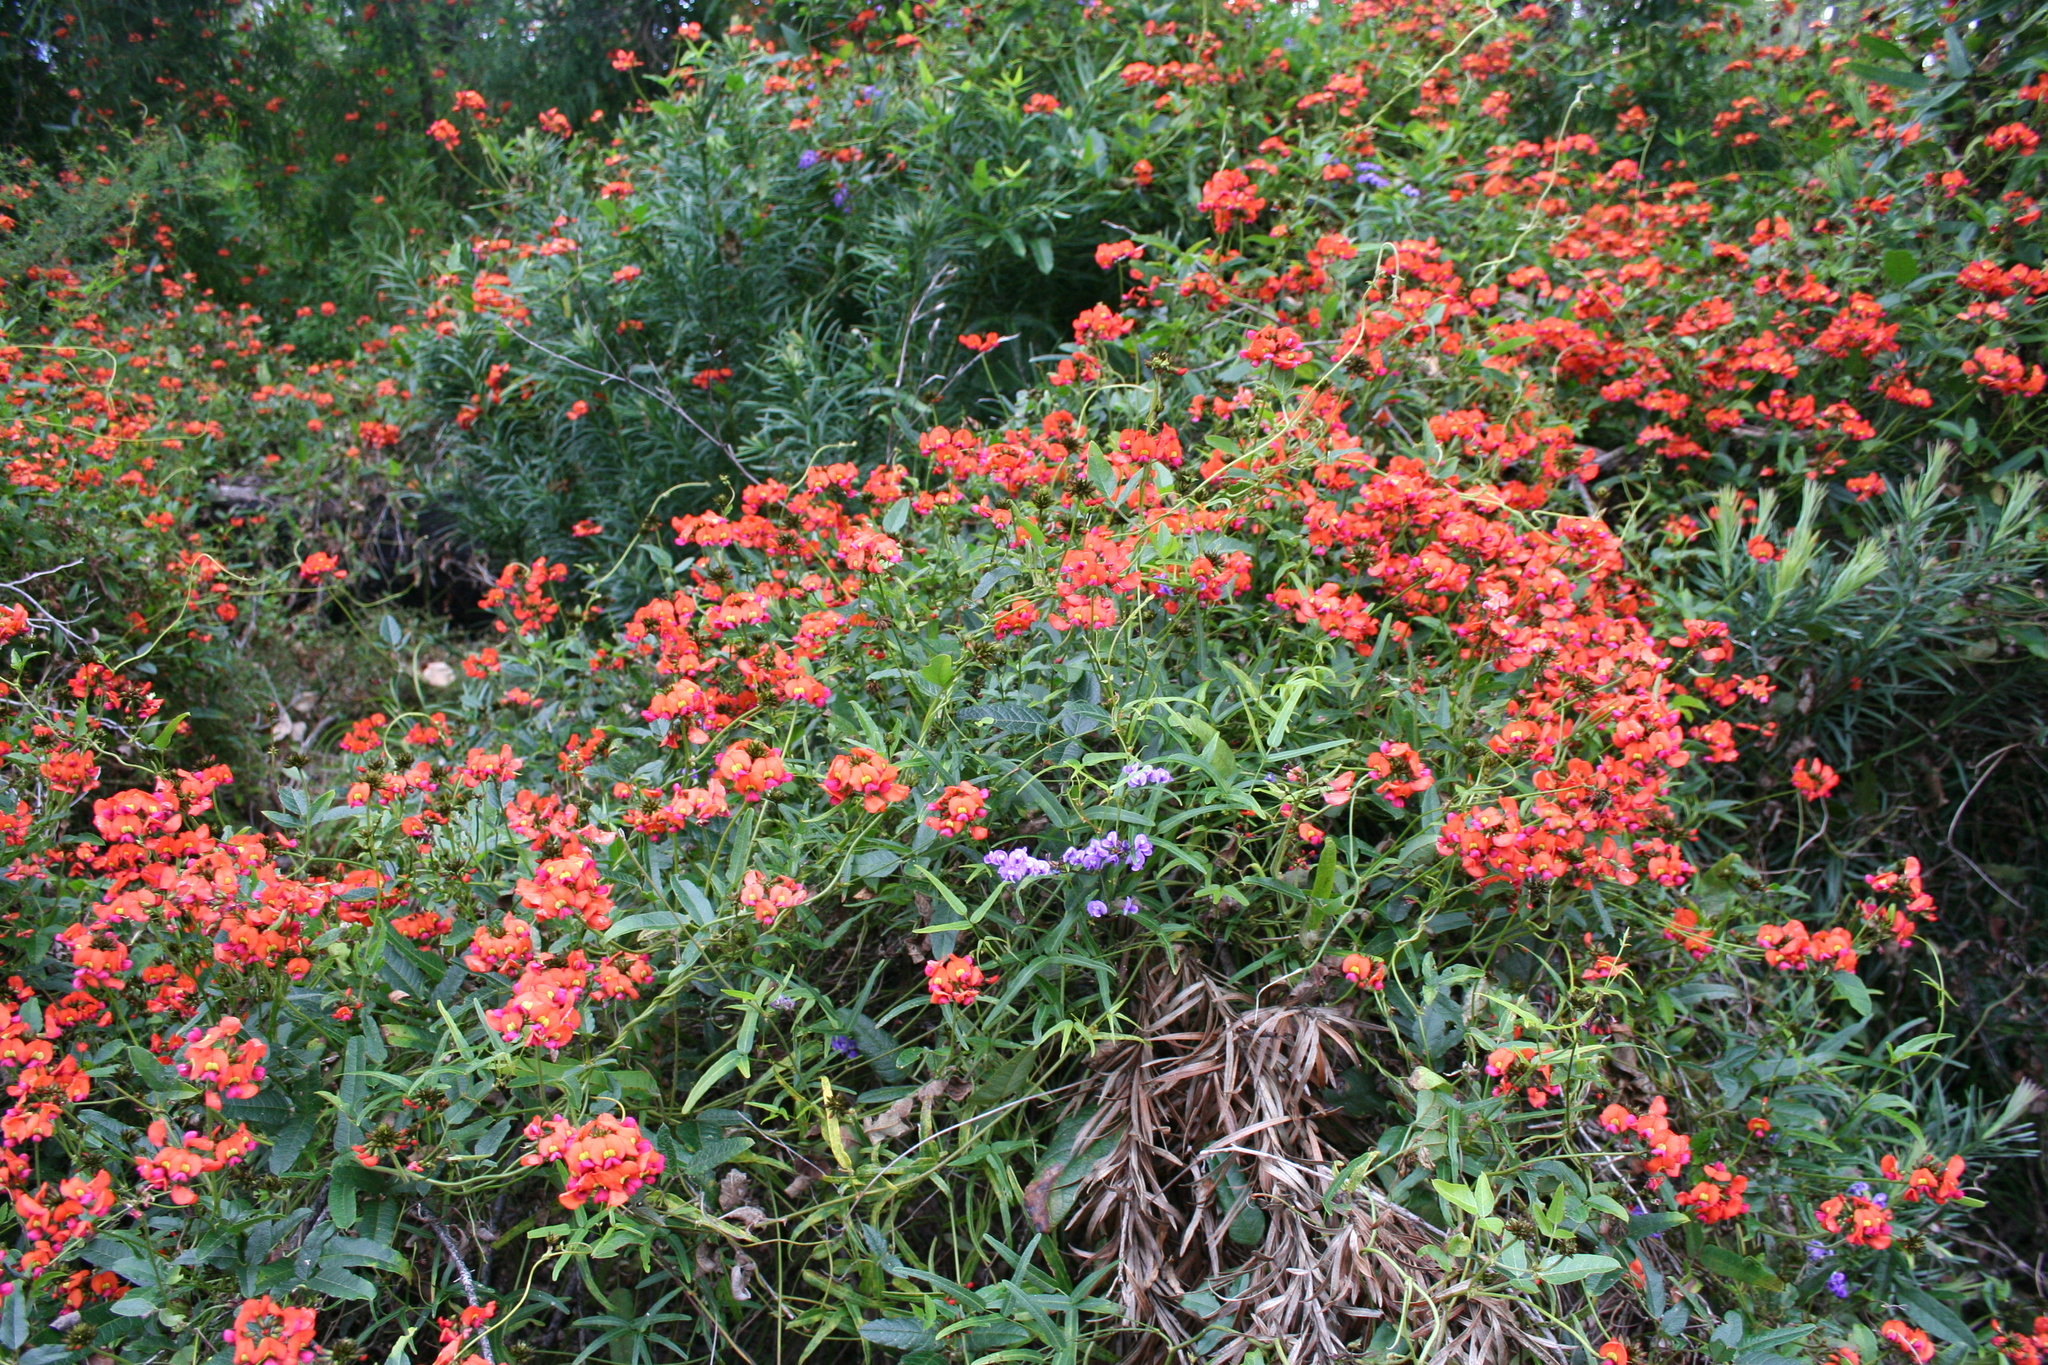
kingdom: Plantae
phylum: Tracheophyta
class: Magnoliopsida
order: Fabales
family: Fabaceae
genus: Kennedia
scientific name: Kennedia coccinea
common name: Coralvine
